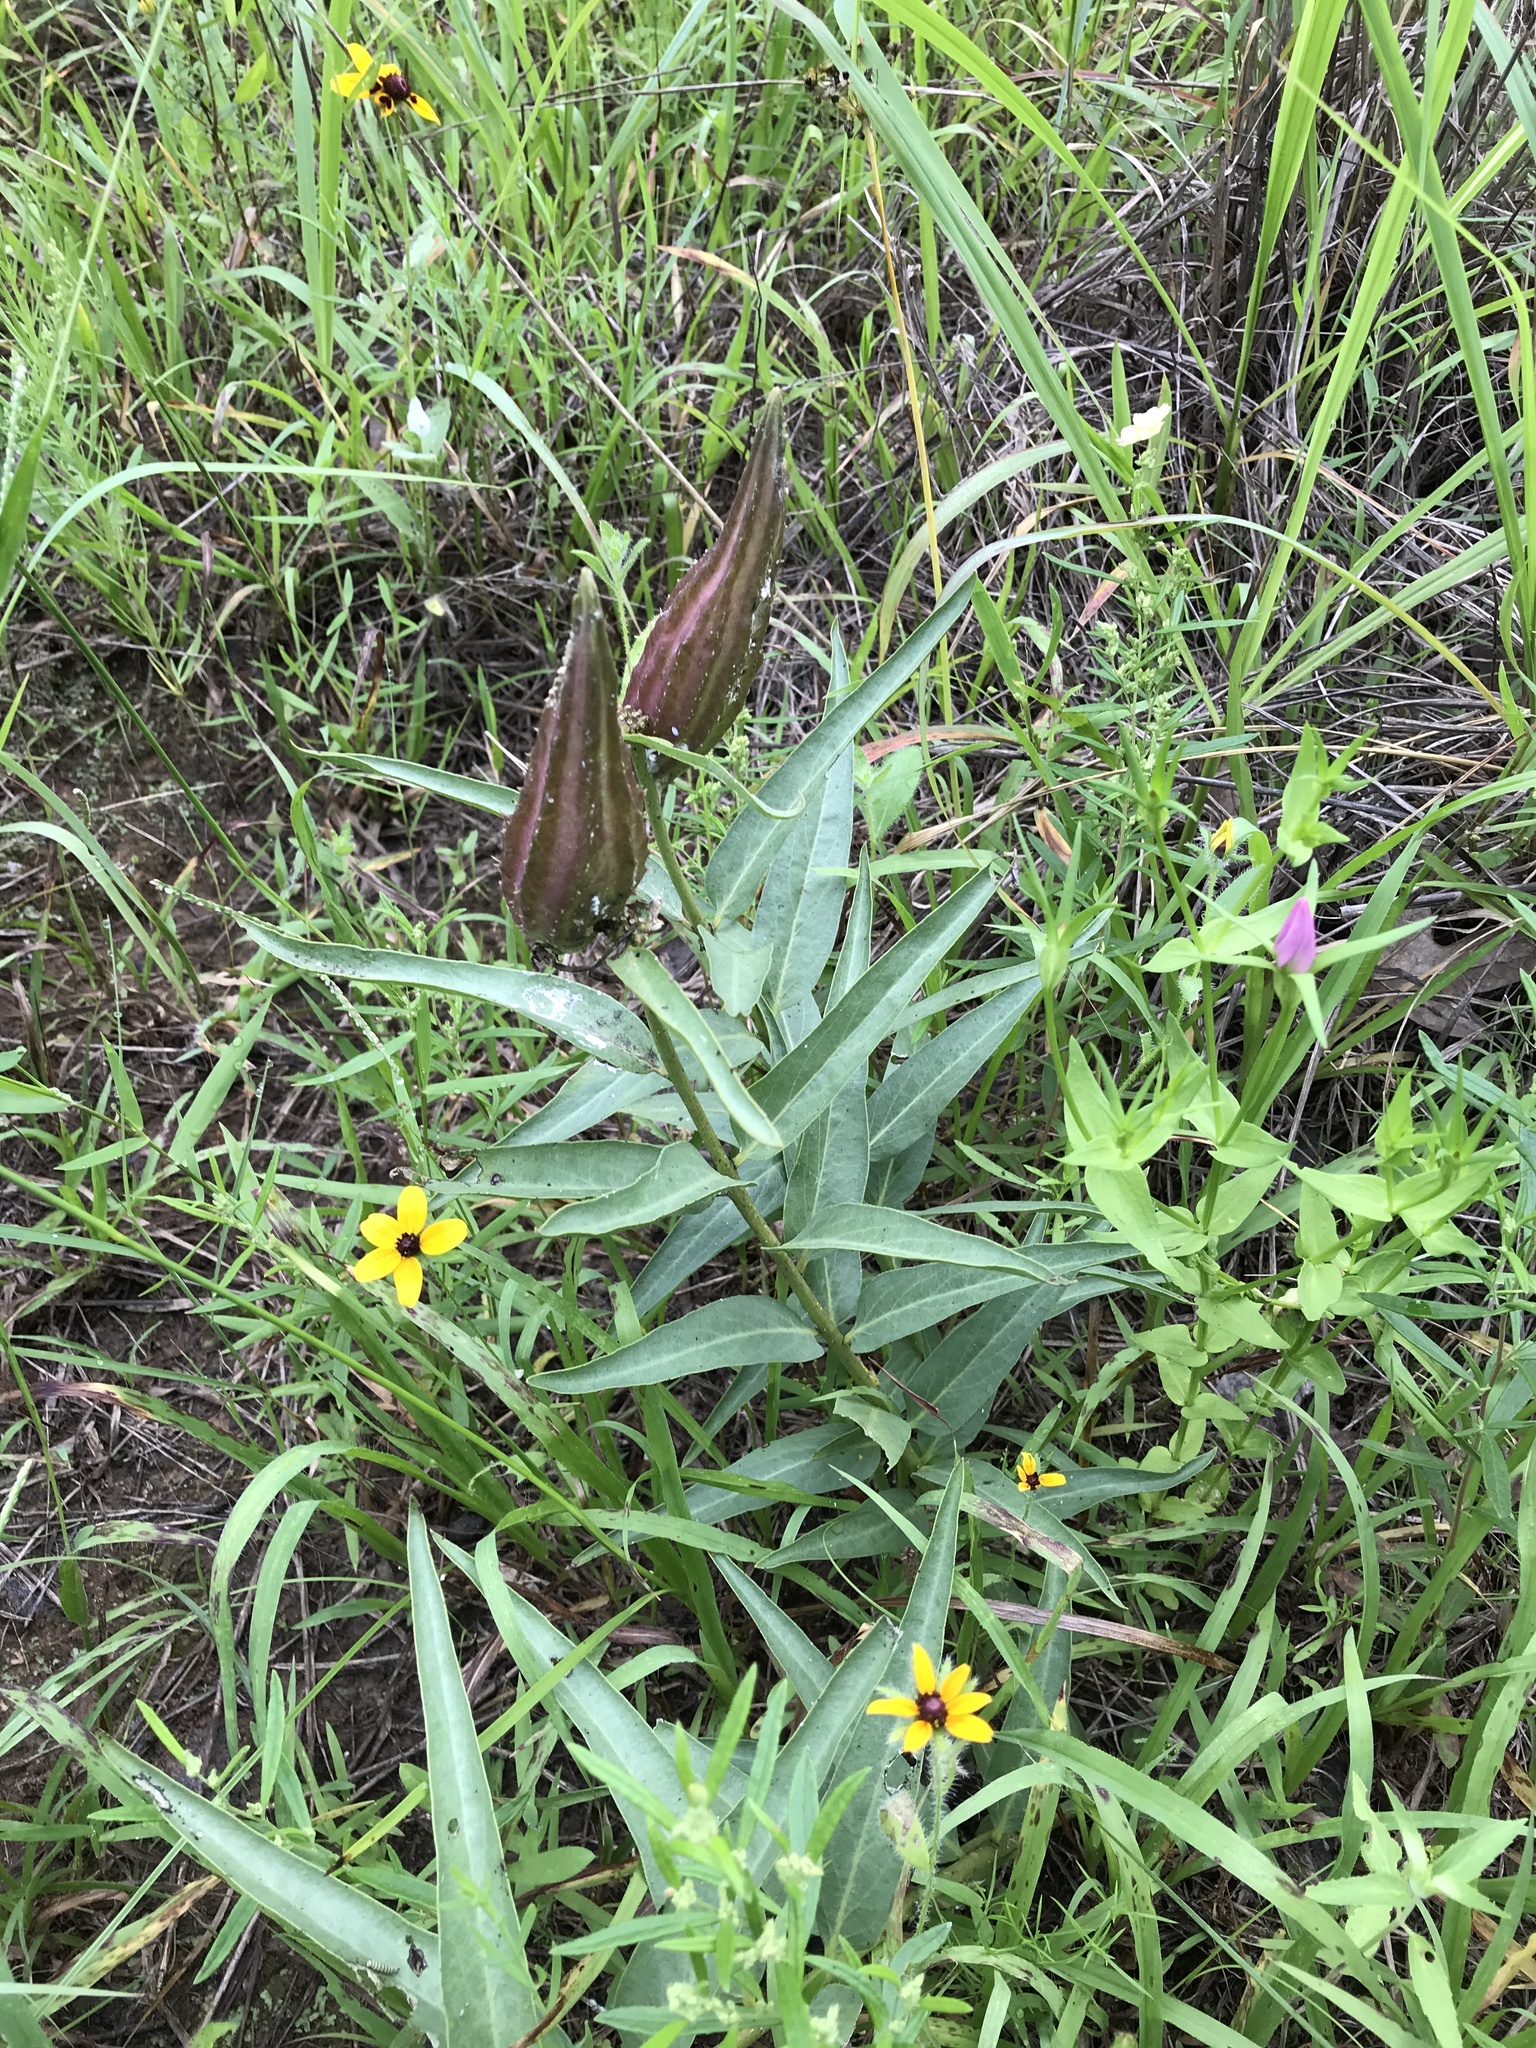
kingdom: Plantae
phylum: Tracheophyta
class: Magnoliopsida
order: Gentianales
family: Apocynaceae
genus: Asclepias
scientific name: Asclepias asperula
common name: Antelope horns
